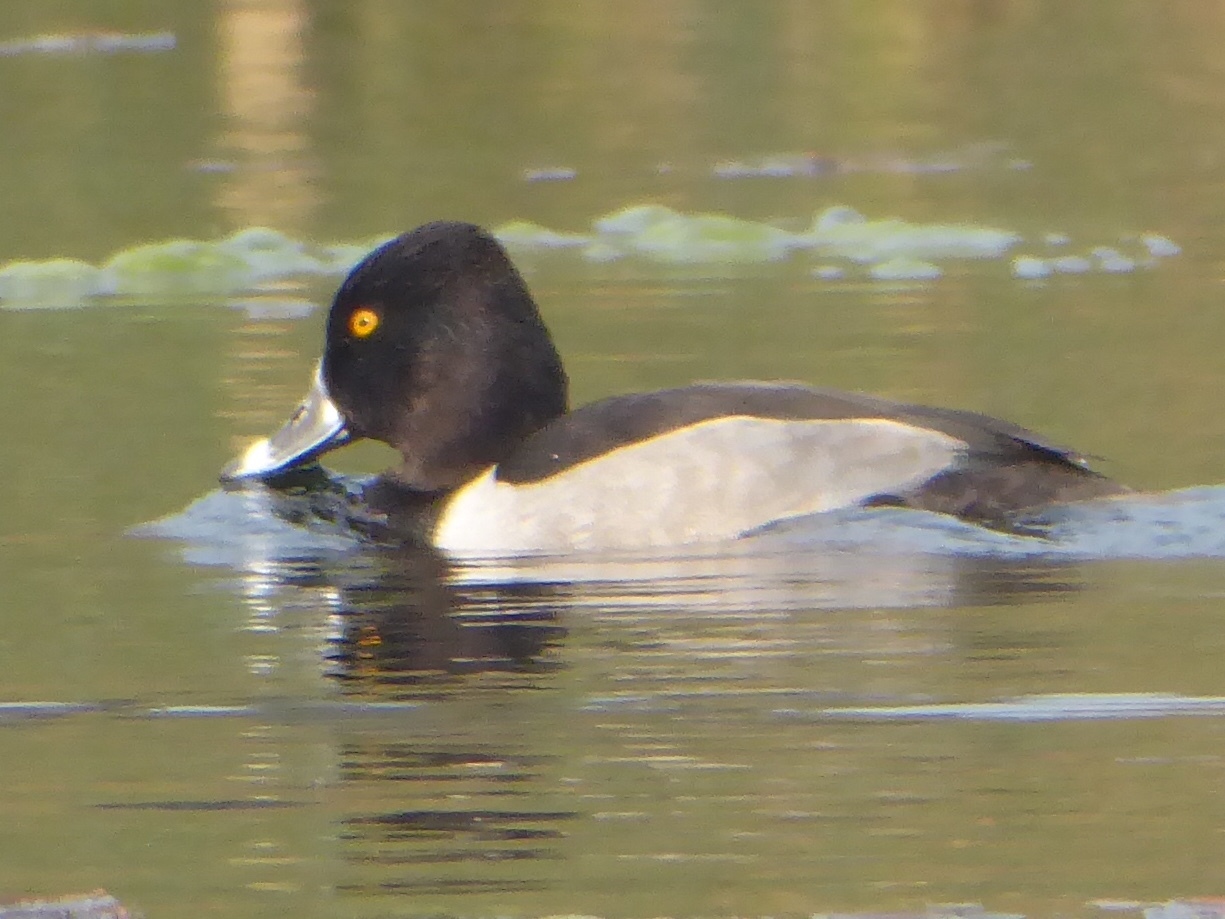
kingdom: Animalia
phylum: Chordata
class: Aves
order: Anseriformes
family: Anatidae
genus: Aythya
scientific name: Aythya collaris
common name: Ring-necked duck
